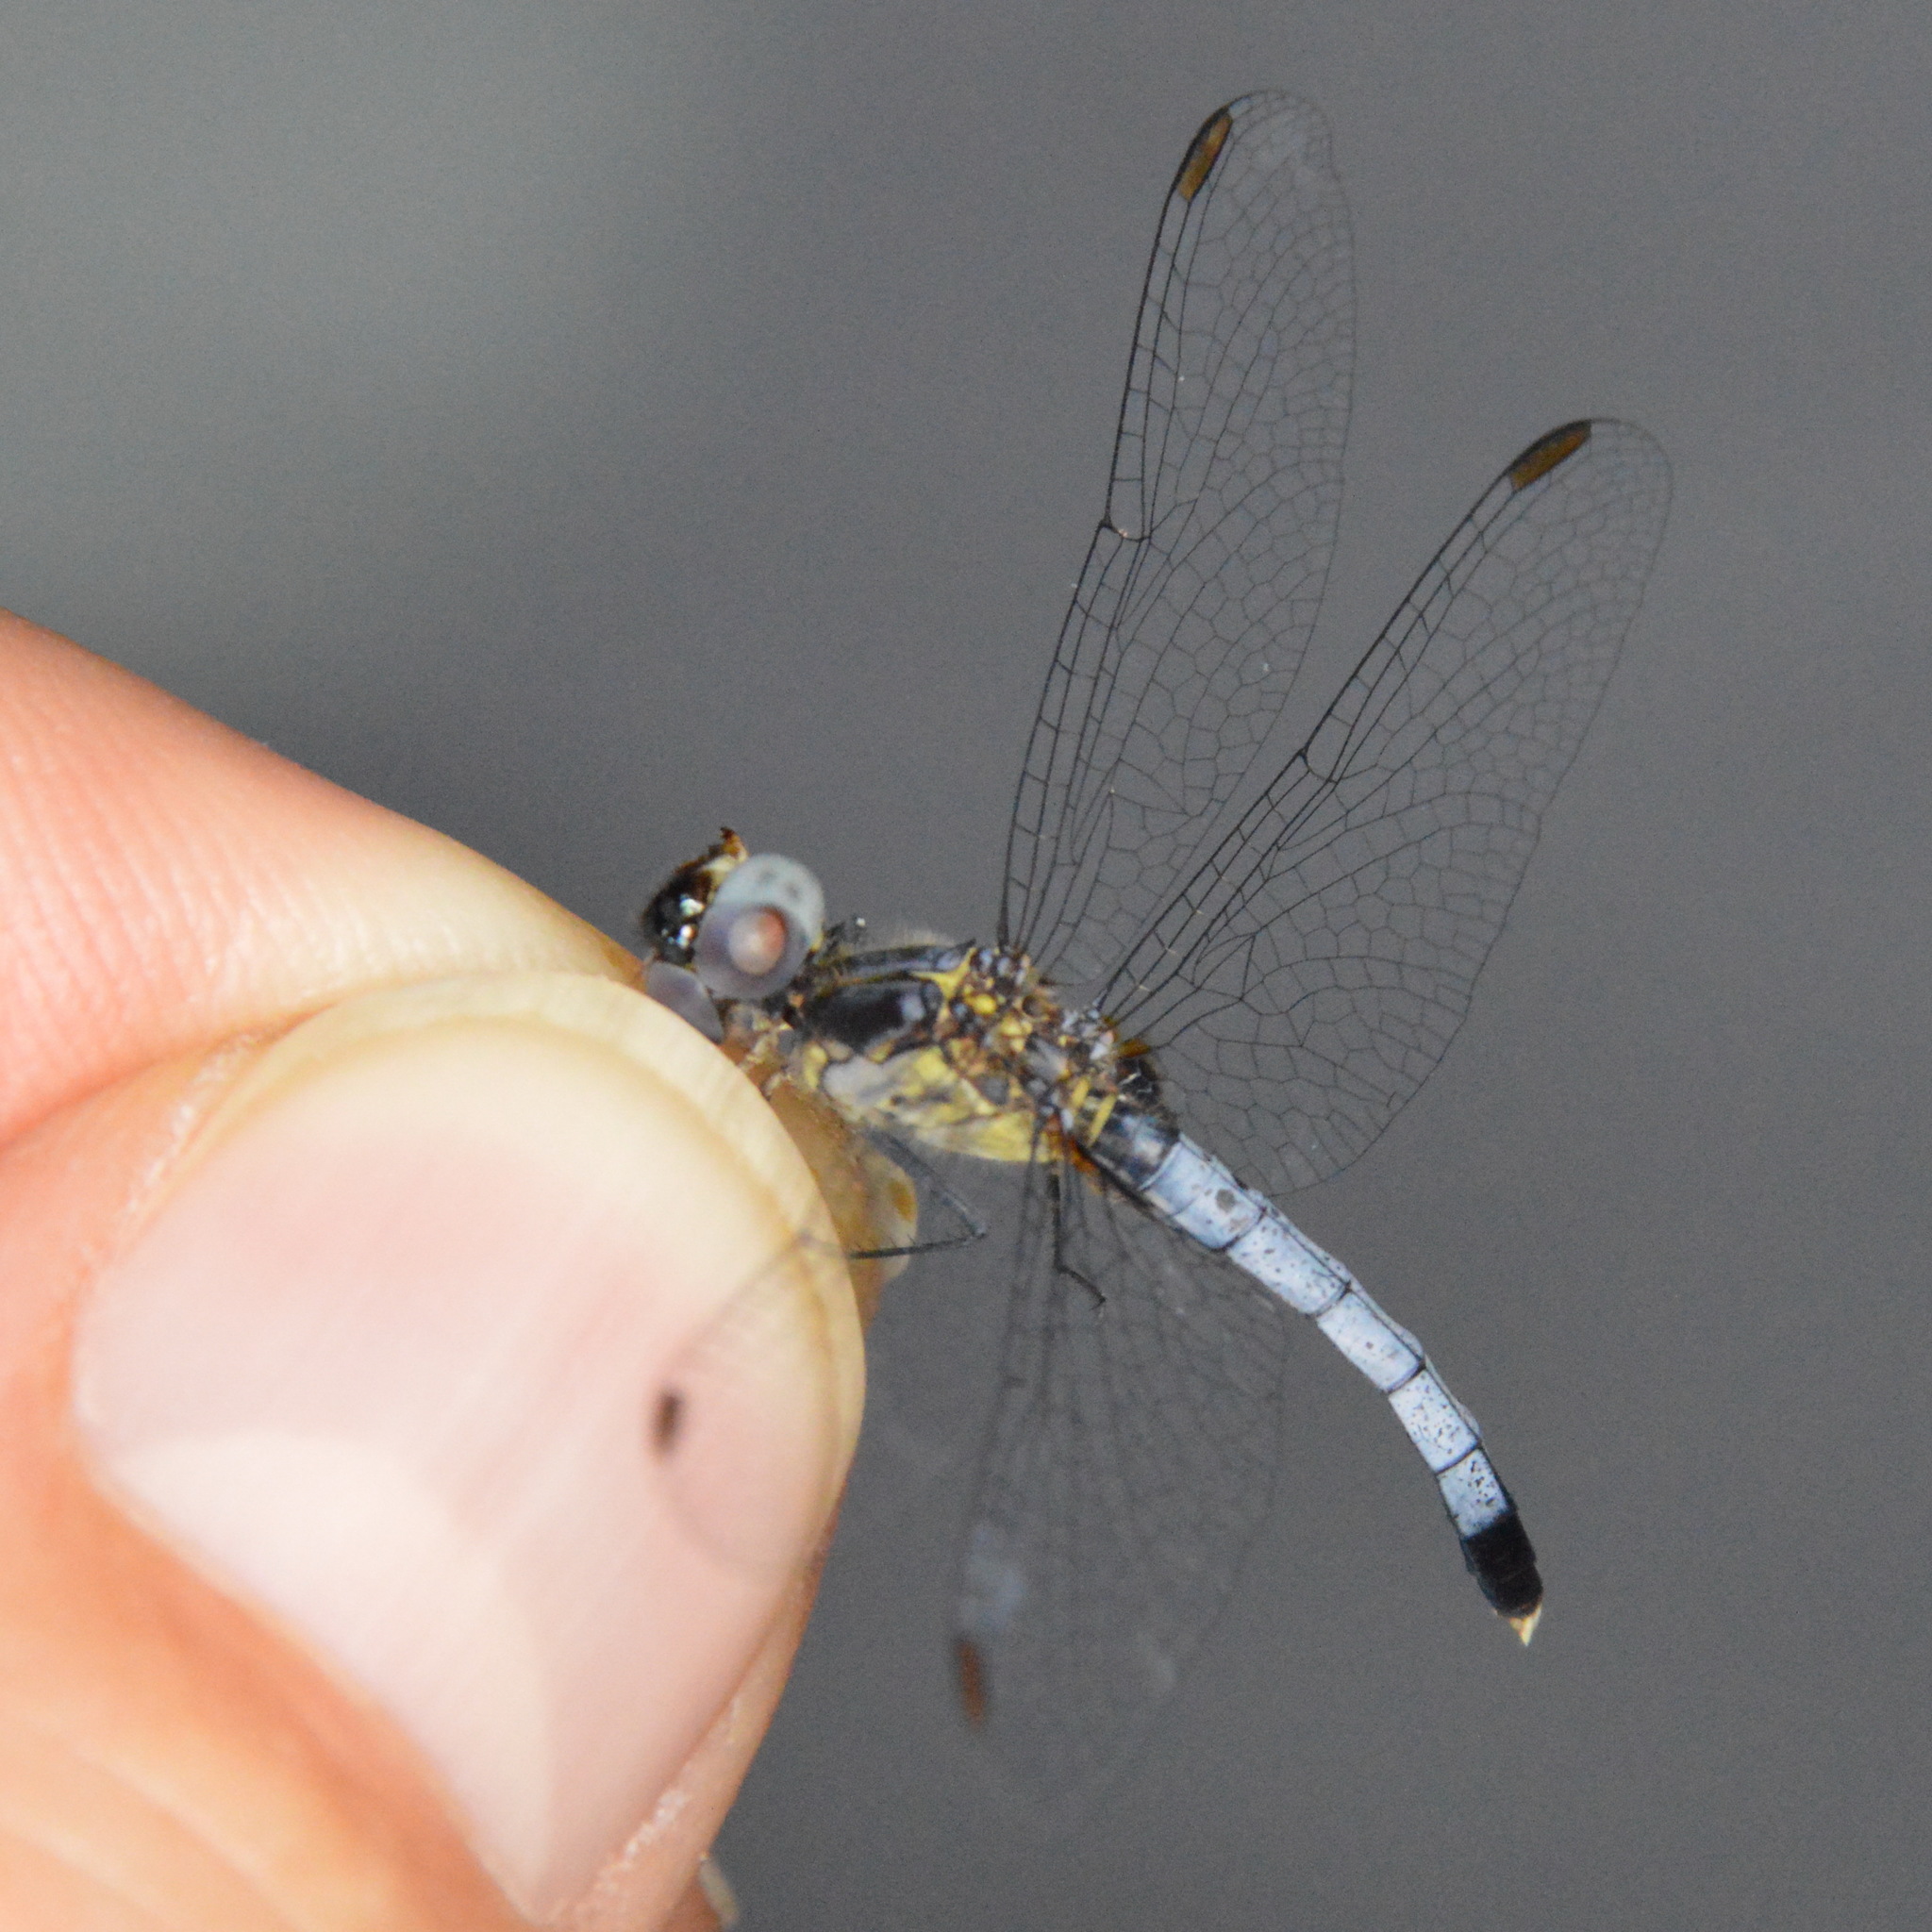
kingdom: Animalia
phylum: Arthropoda
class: Insecta
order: Odonata
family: Libellulidae
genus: Erythrodiplax
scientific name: Erythrodiplax minuscula
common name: Little blue dragonlet
